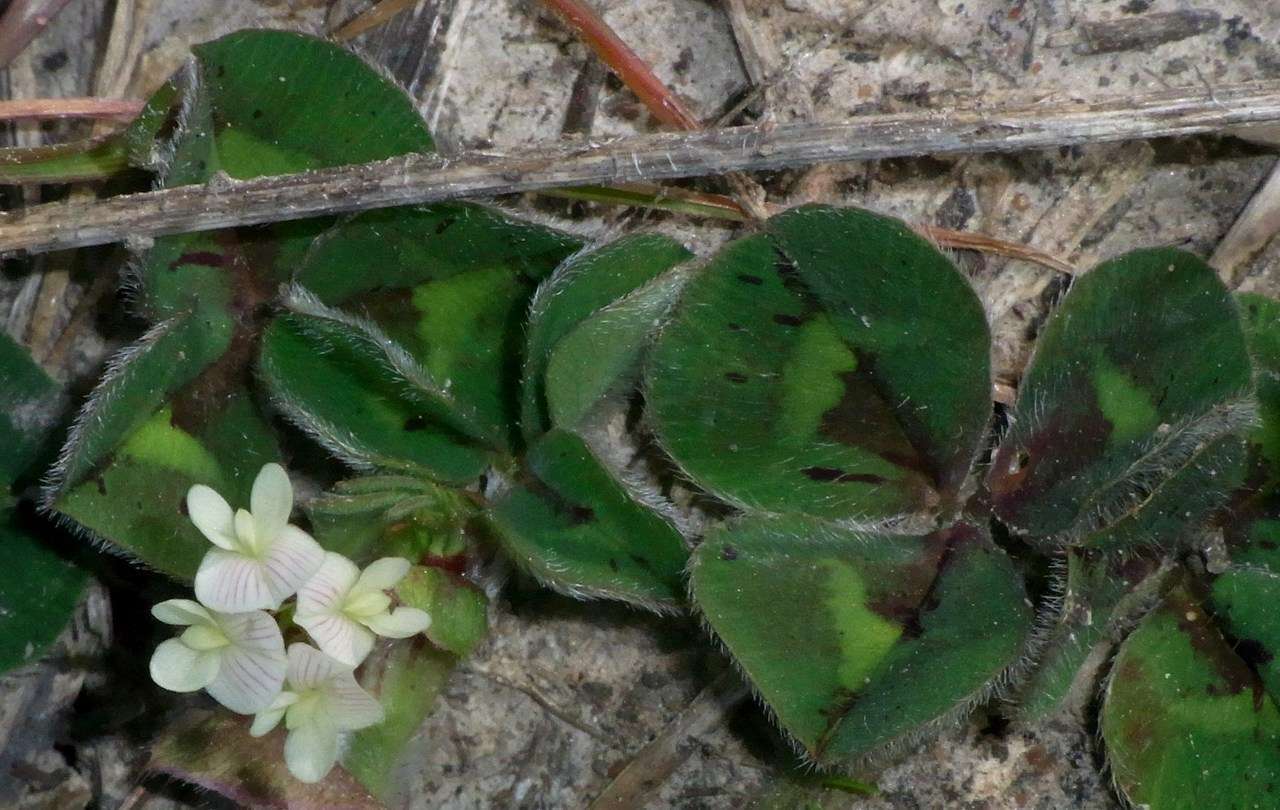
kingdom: Plantae
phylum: Tracheophyta
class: Magnoliopsida
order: Fabales
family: Fabaceae
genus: Trifolium
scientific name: Trifolium subterraneum
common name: Subterranean clover
